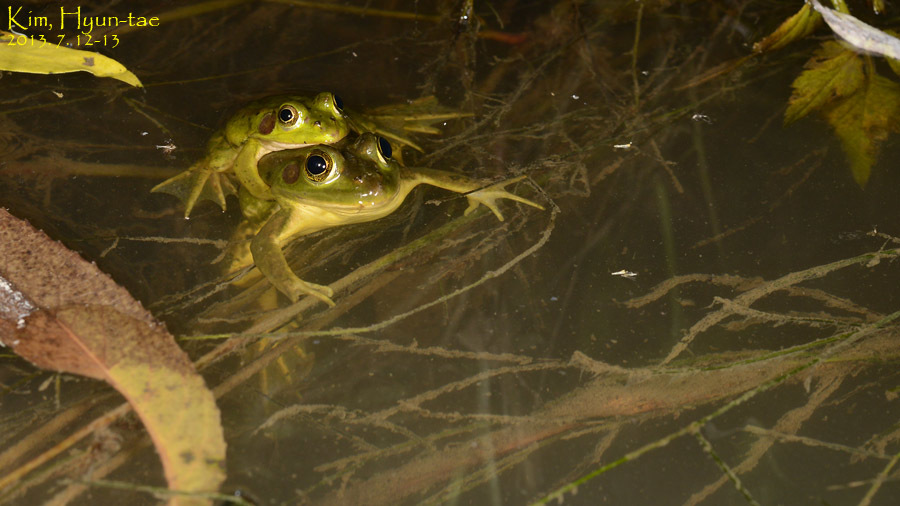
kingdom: Animalia
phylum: Chordata
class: Amphibia
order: Anura
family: Ranidae
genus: Pelophylax
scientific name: Pelophylax chosenicus
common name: Gold-spotted pond frog
